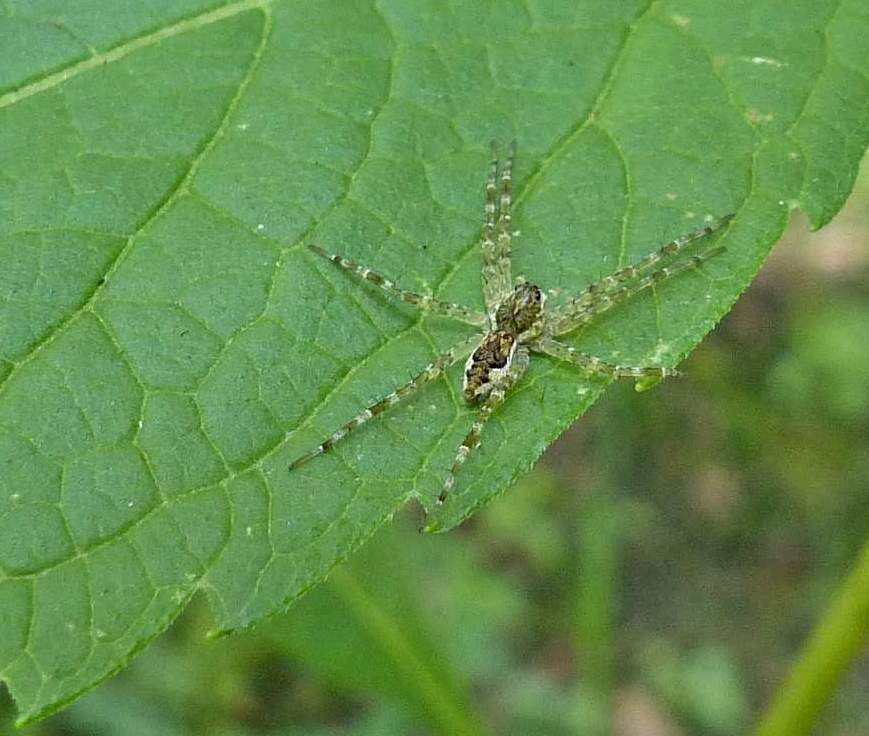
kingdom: Animalia
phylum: Arthropoda
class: Arachnida
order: Araneae
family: Pisauridae
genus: Dolomedes
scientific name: Dolomedes tenebrosus
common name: Dark fishing spider
